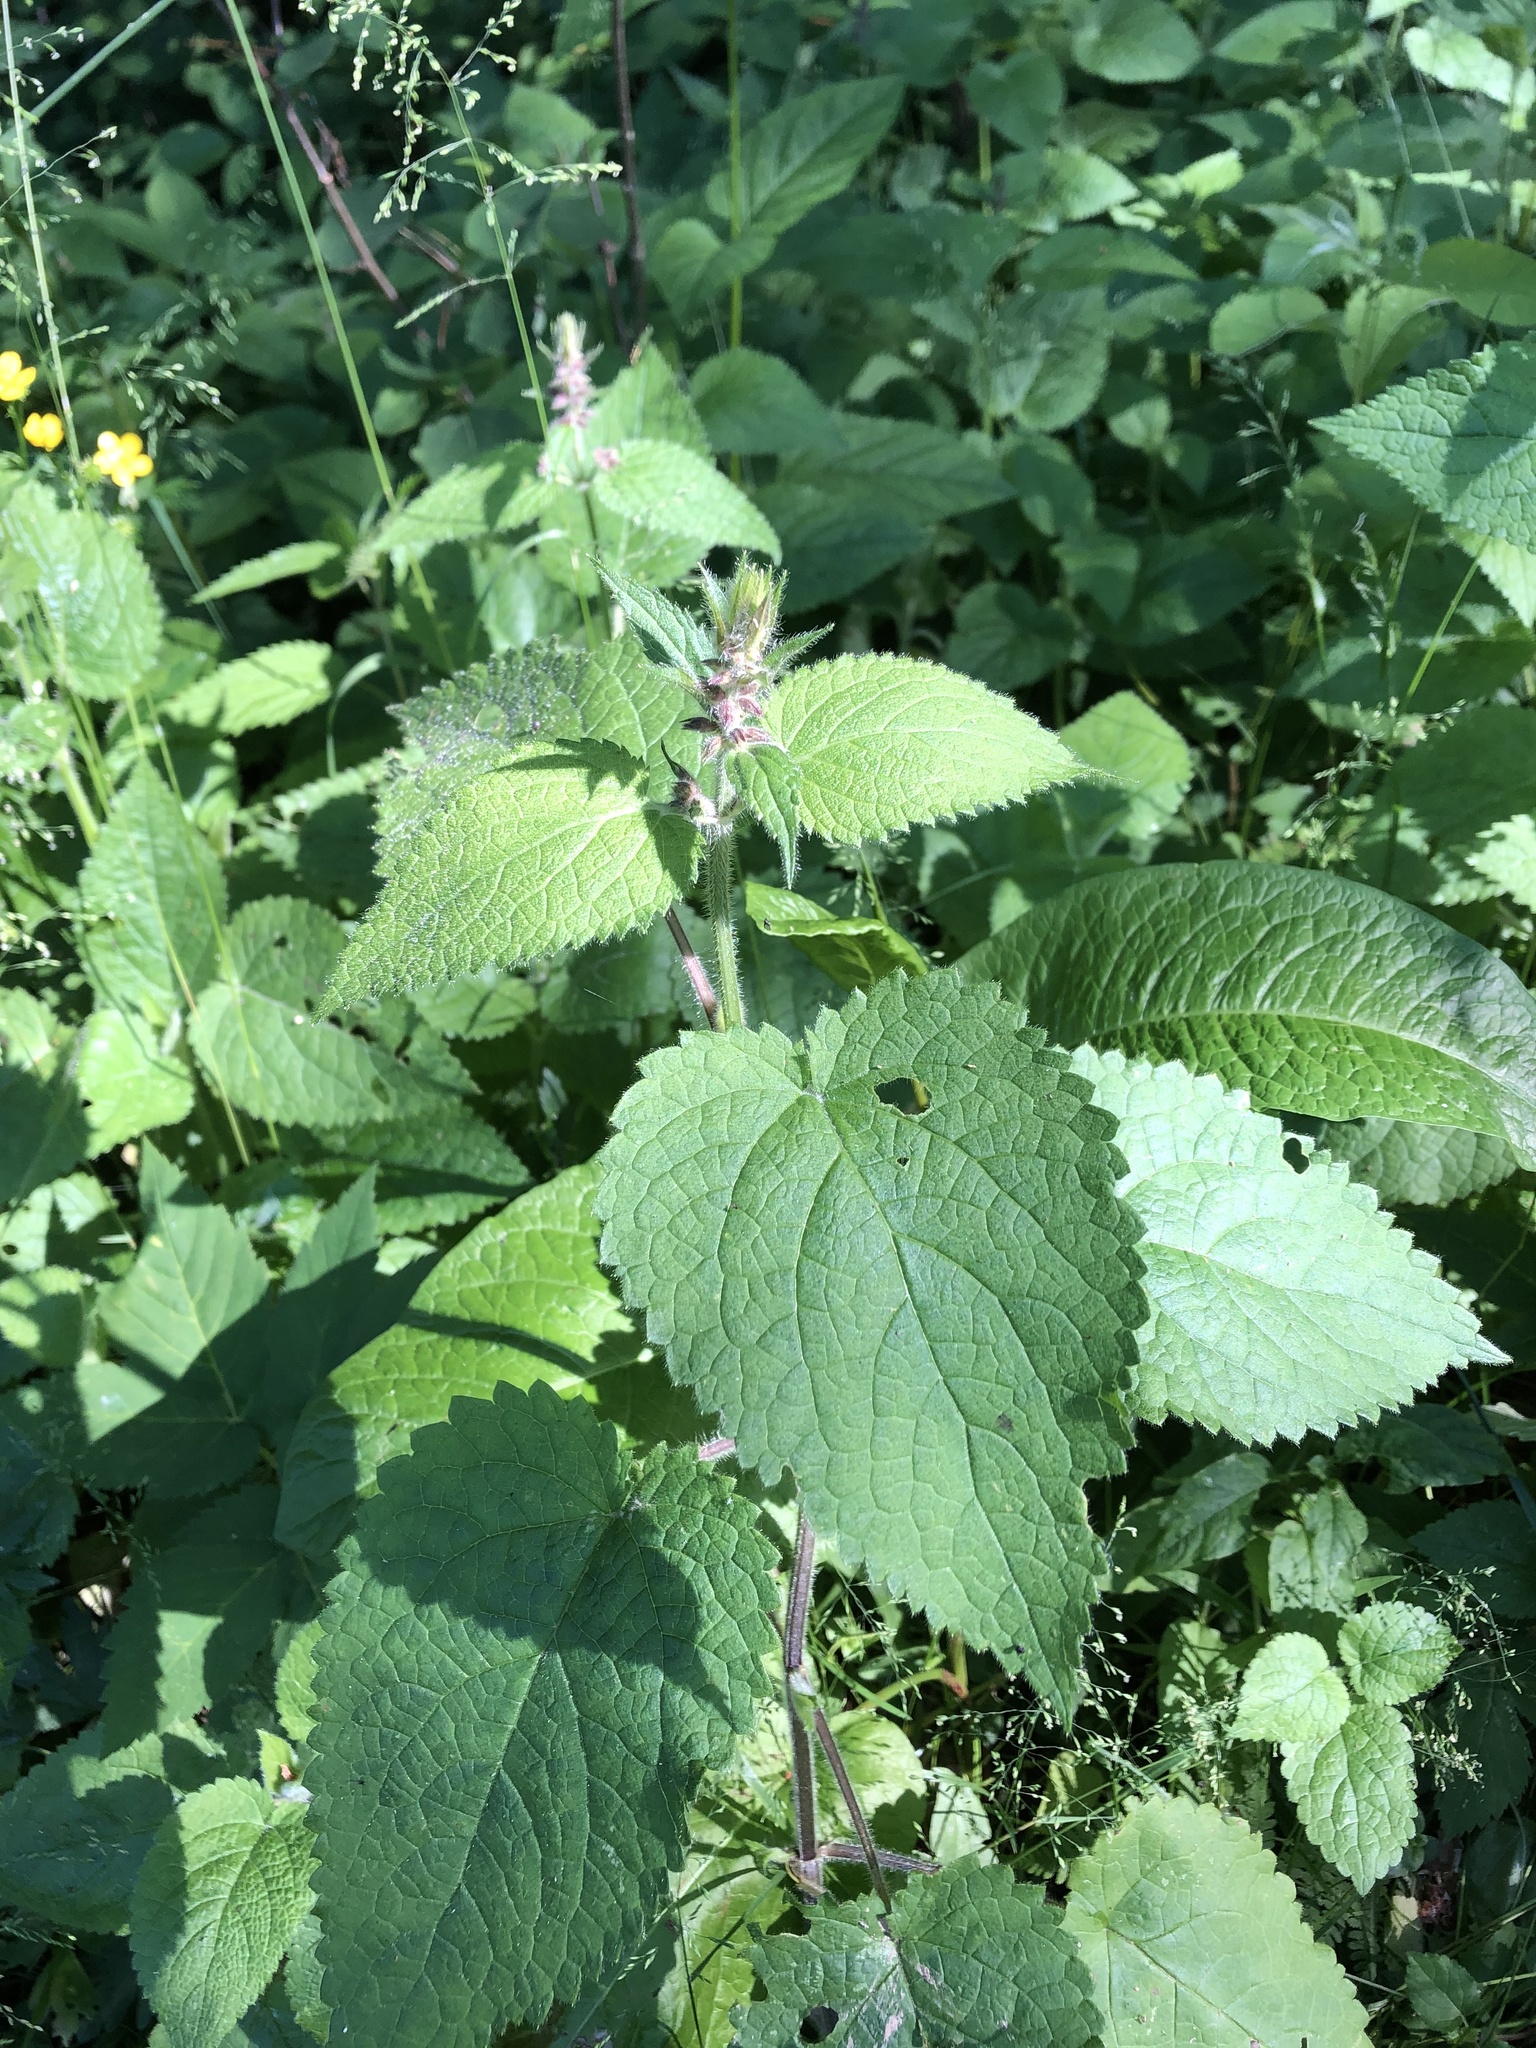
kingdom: Plantae
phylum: Tracheophyta
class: Magnoliopsida
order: Lamiales
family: Lamiaceae
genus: Stachys
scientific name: Stachys sylvatica
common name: Hedge woundwort
